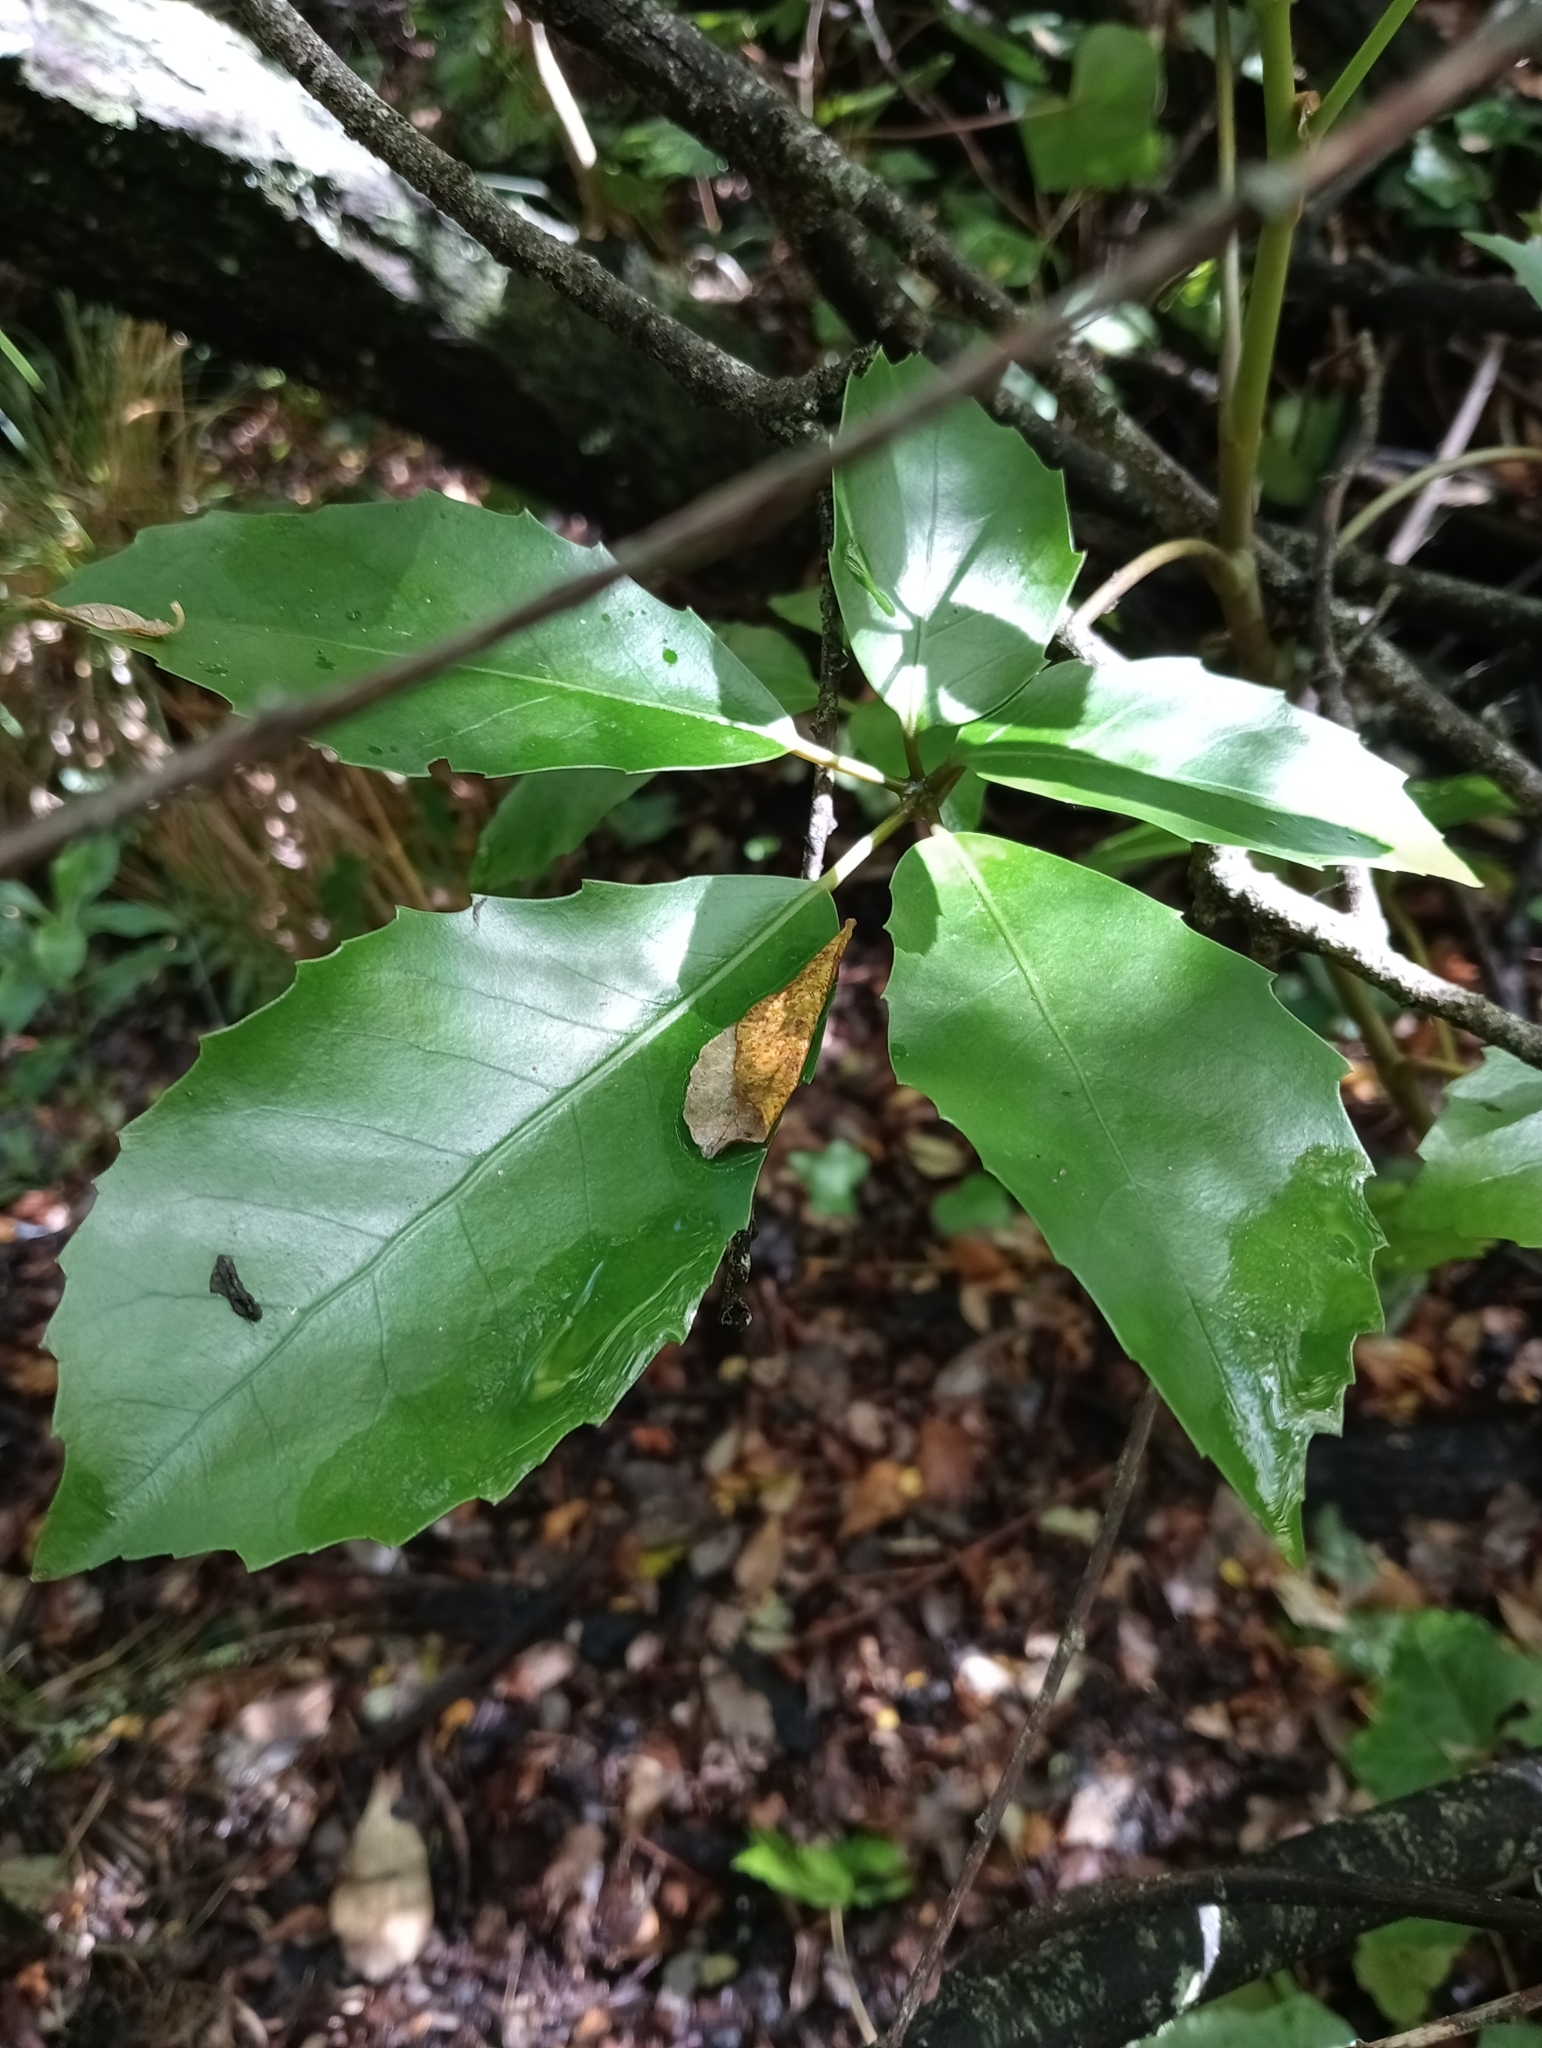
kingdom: Plantae
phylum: Tracheophyta
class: Magnoliopsida
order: Apiales
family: Araliaceae
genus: Neopanax
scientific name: Neopanax arboreus
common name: Five-fingers
